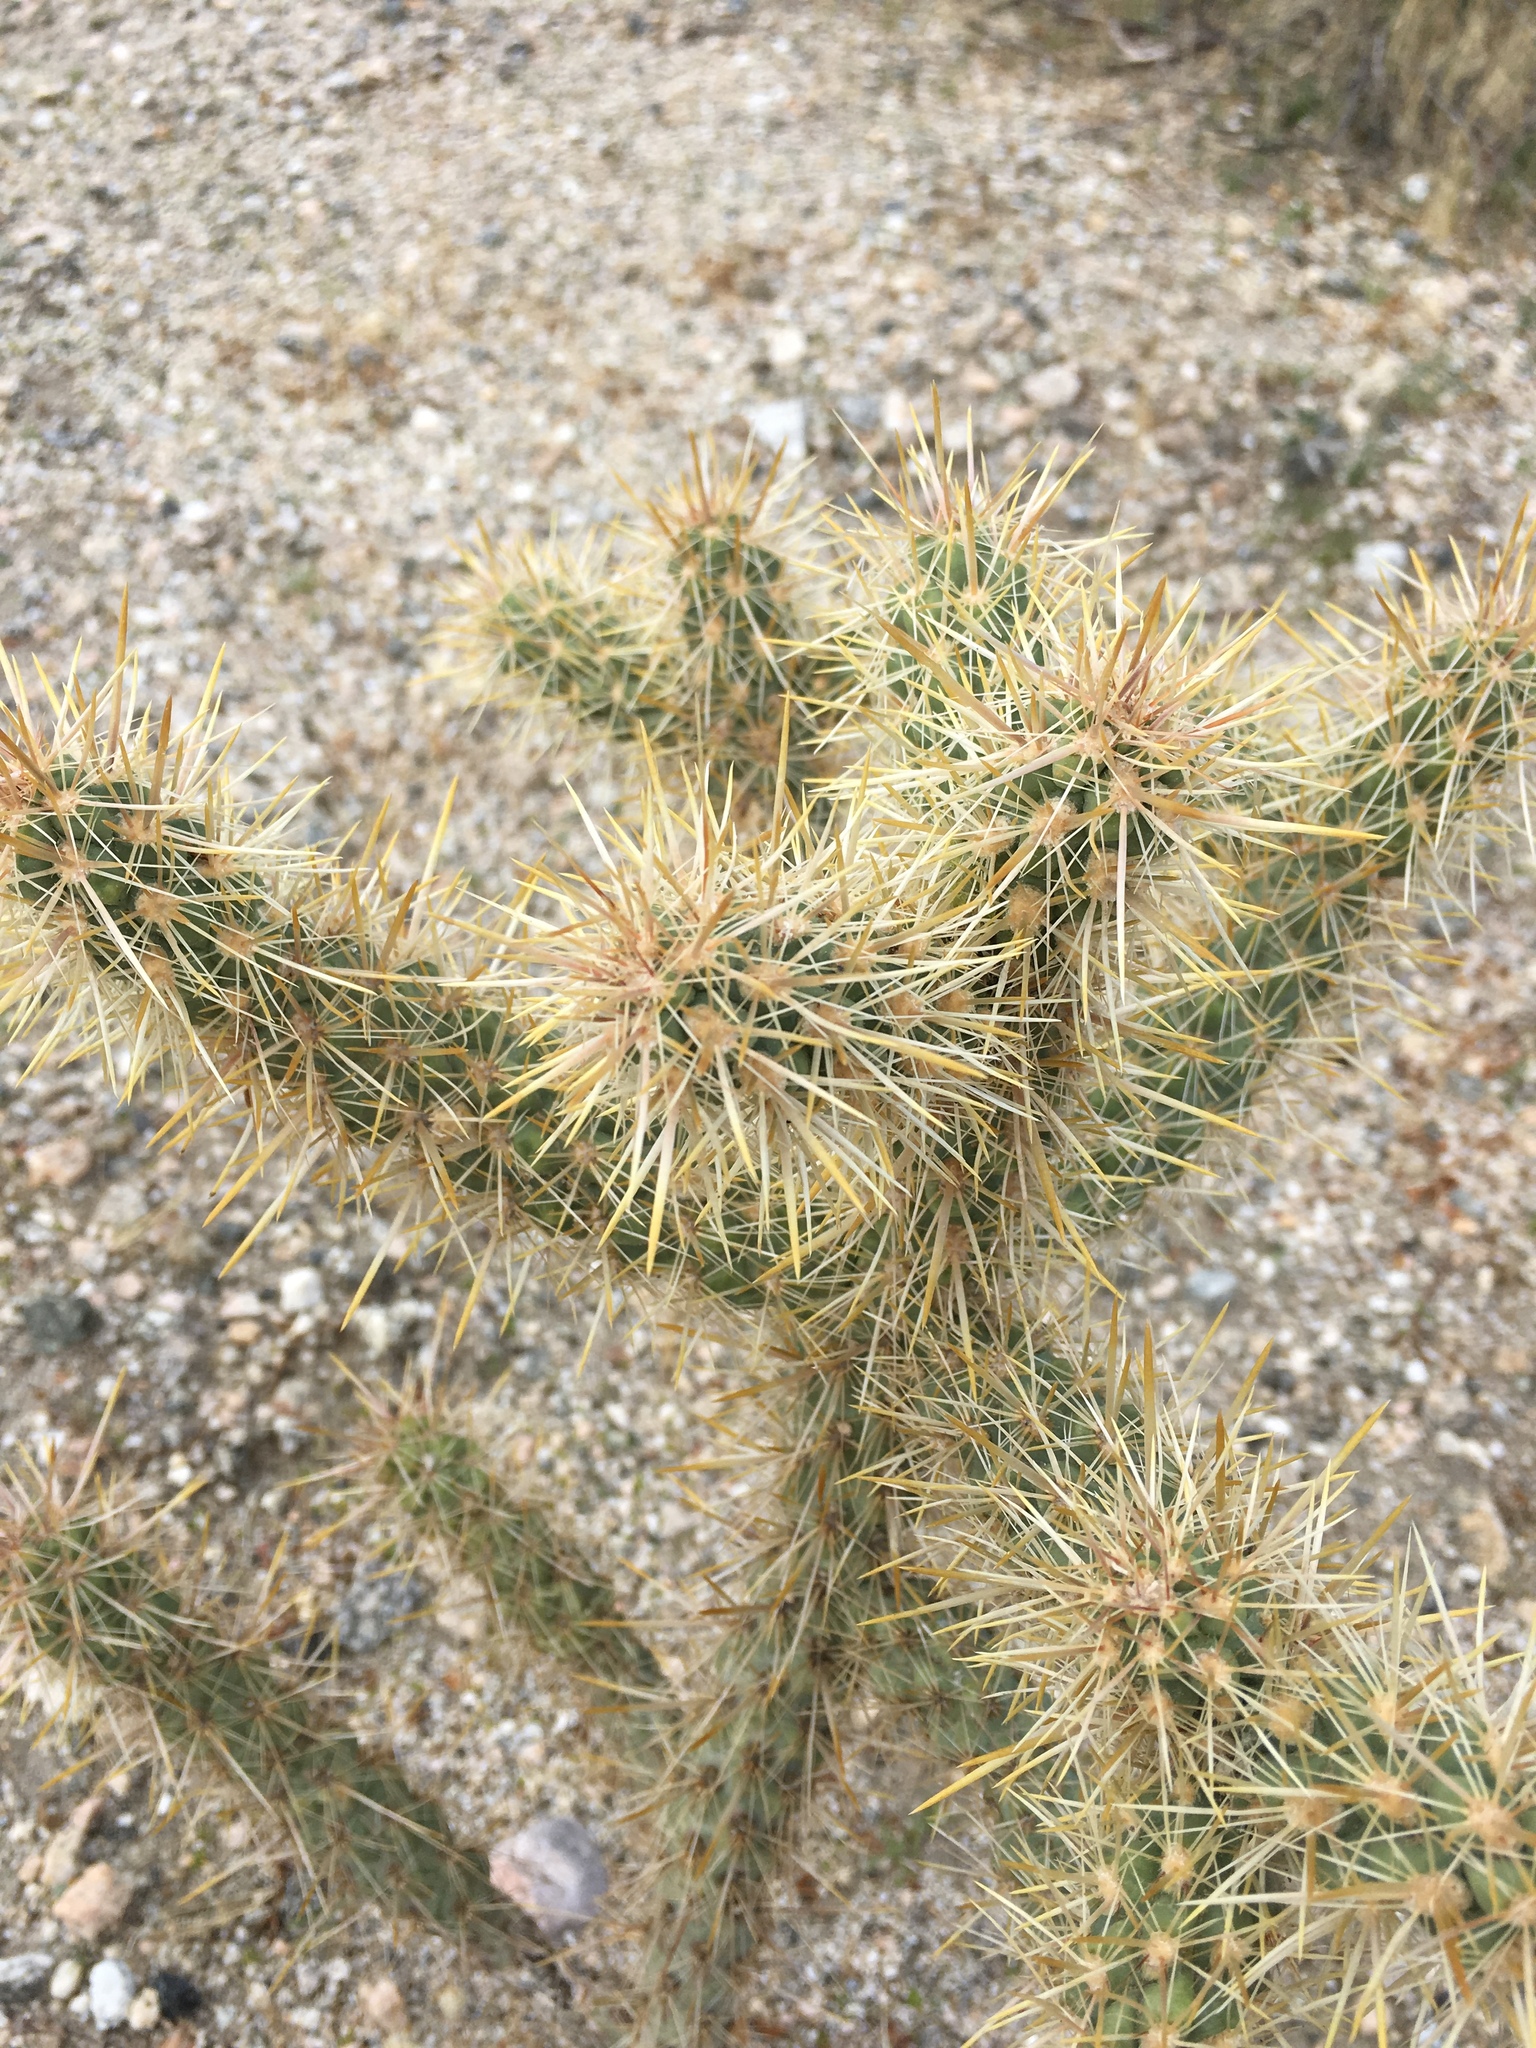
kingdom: Plantae
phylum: Tracheophyta
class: Magnoliopsida
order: Caryophyllales
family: Cactaceae
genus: Cylindropuntia
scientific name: Cylindropuntia echinocarpa
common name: Ground cholla
